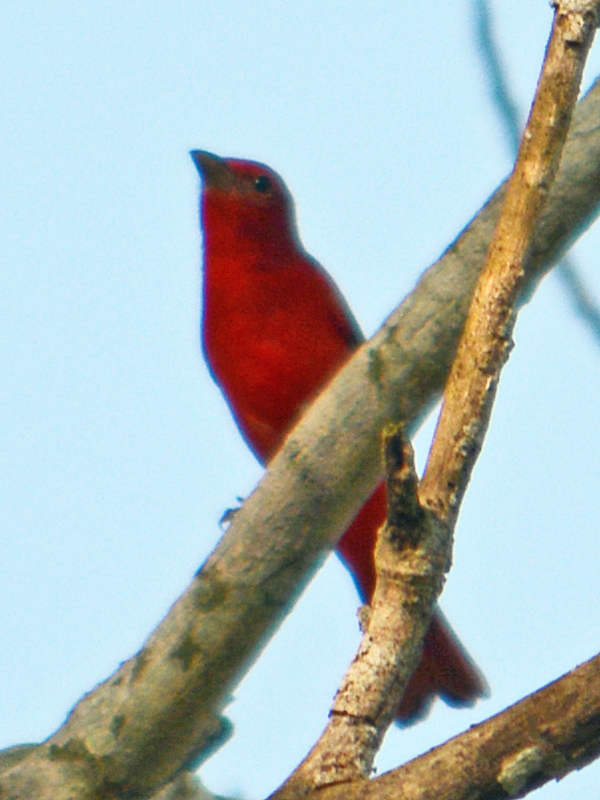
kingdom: Animalia
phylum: Chordata
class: Aves
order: Passeriformes
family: Cardinalidae
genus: Piranga
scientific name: Piranga rubra
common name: Summer tanager
